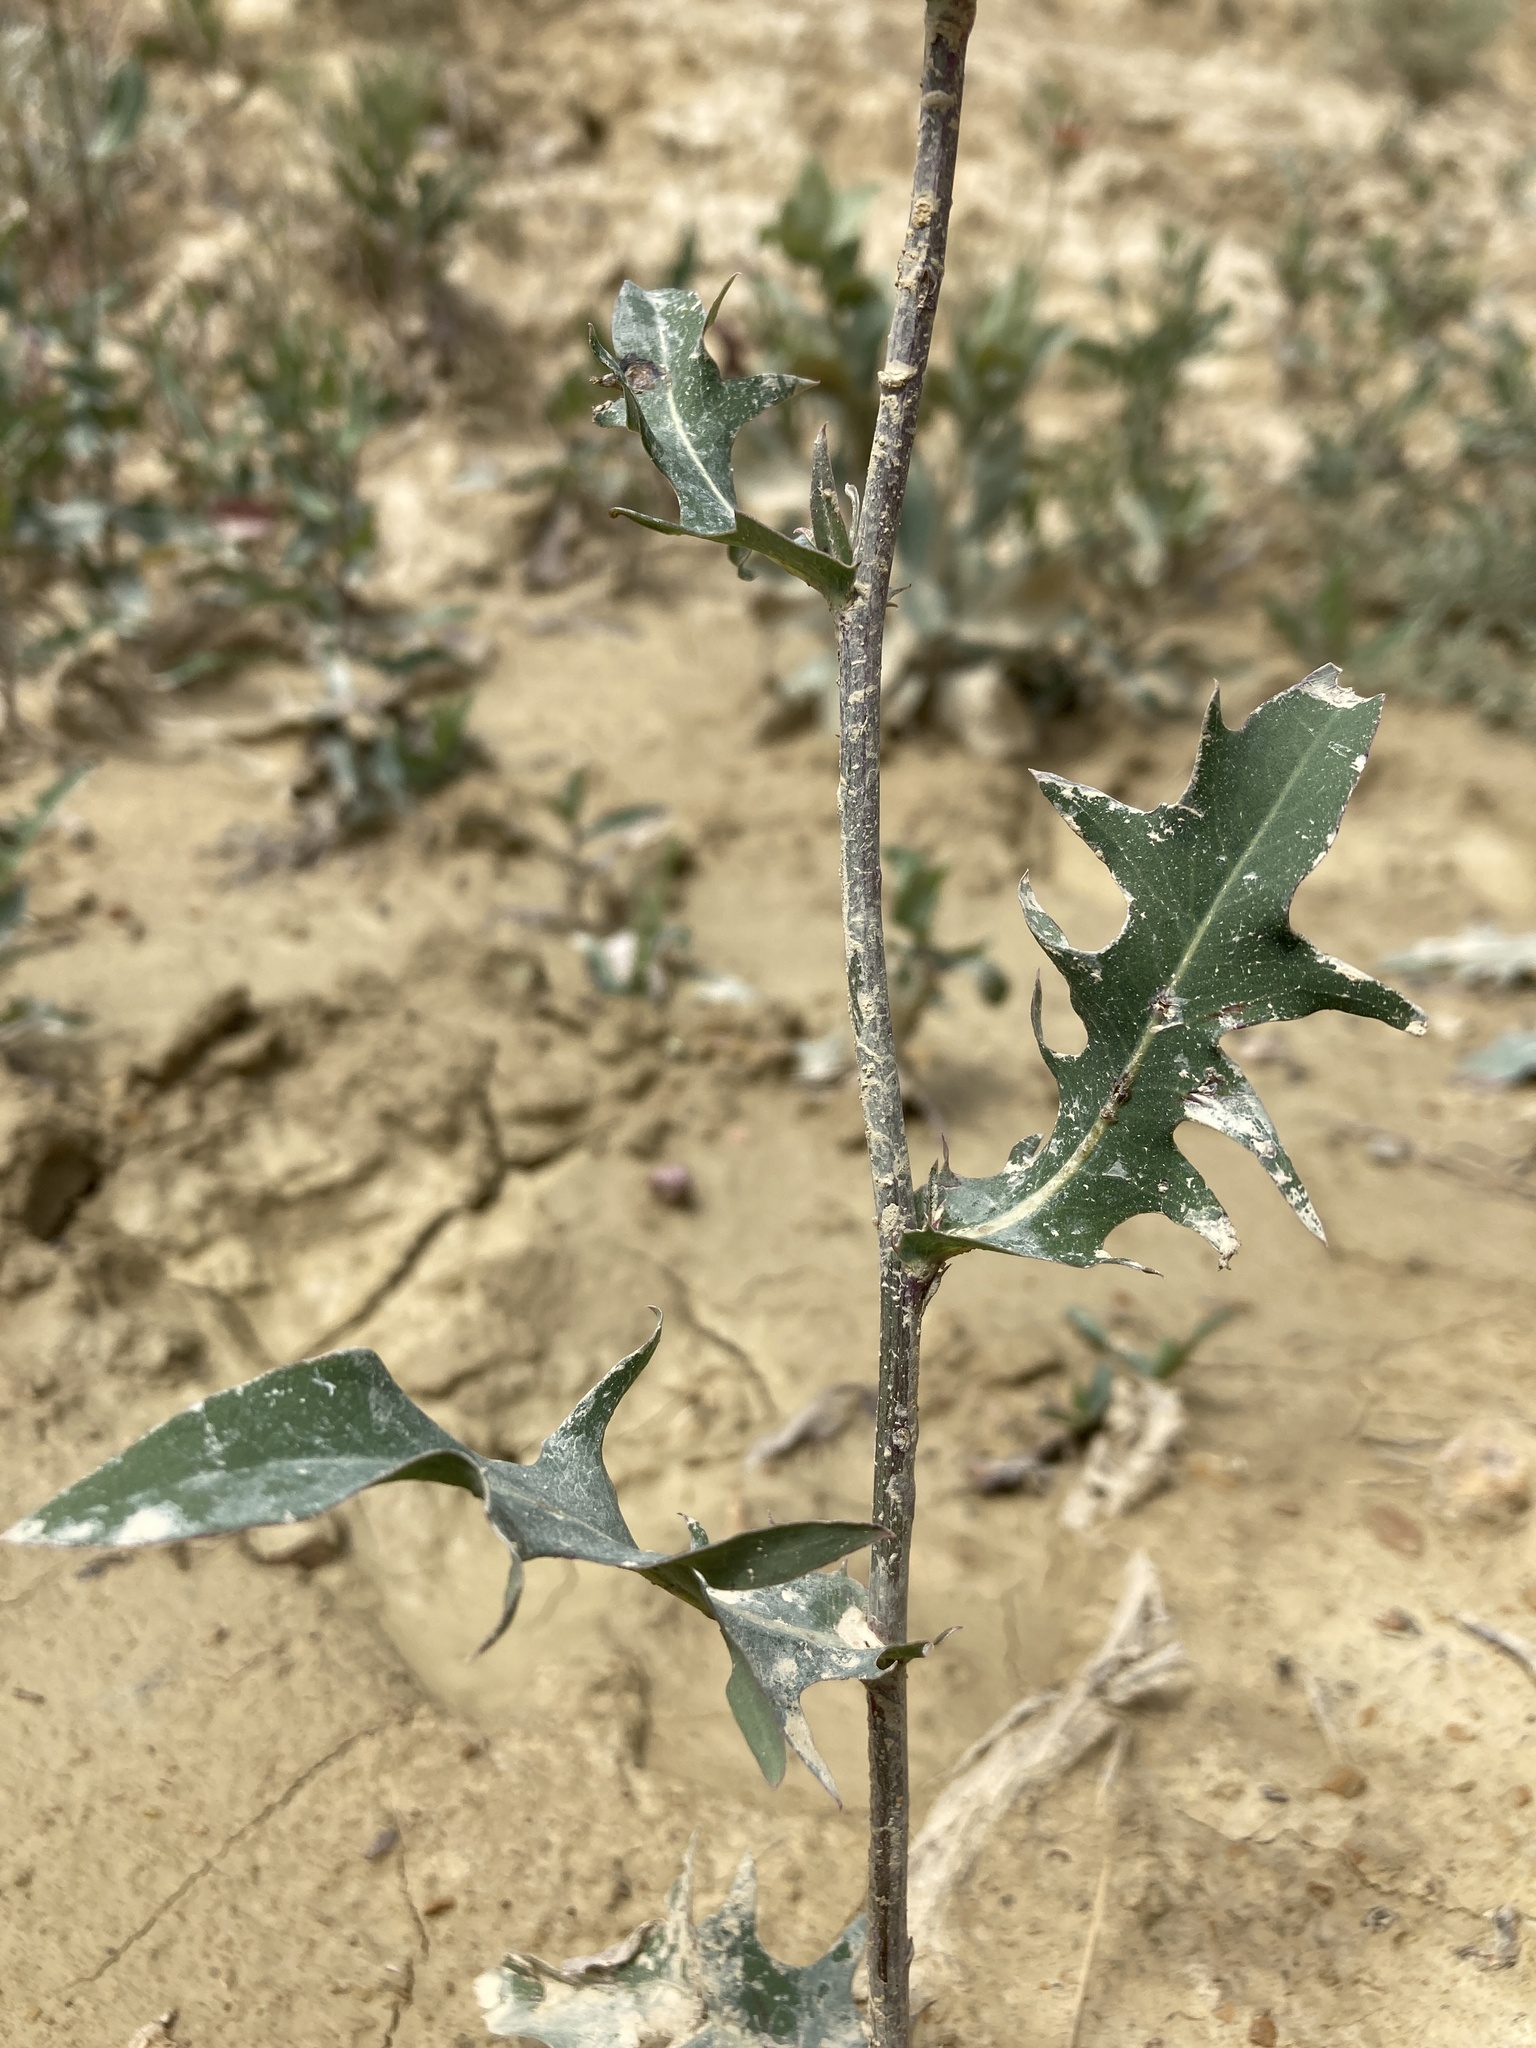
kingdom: Plantae
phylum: Tracheophyta
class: Magnoliopsida
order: Asterales
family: Asteraceae
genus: Lactuca
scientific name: Lactuca pulchella
